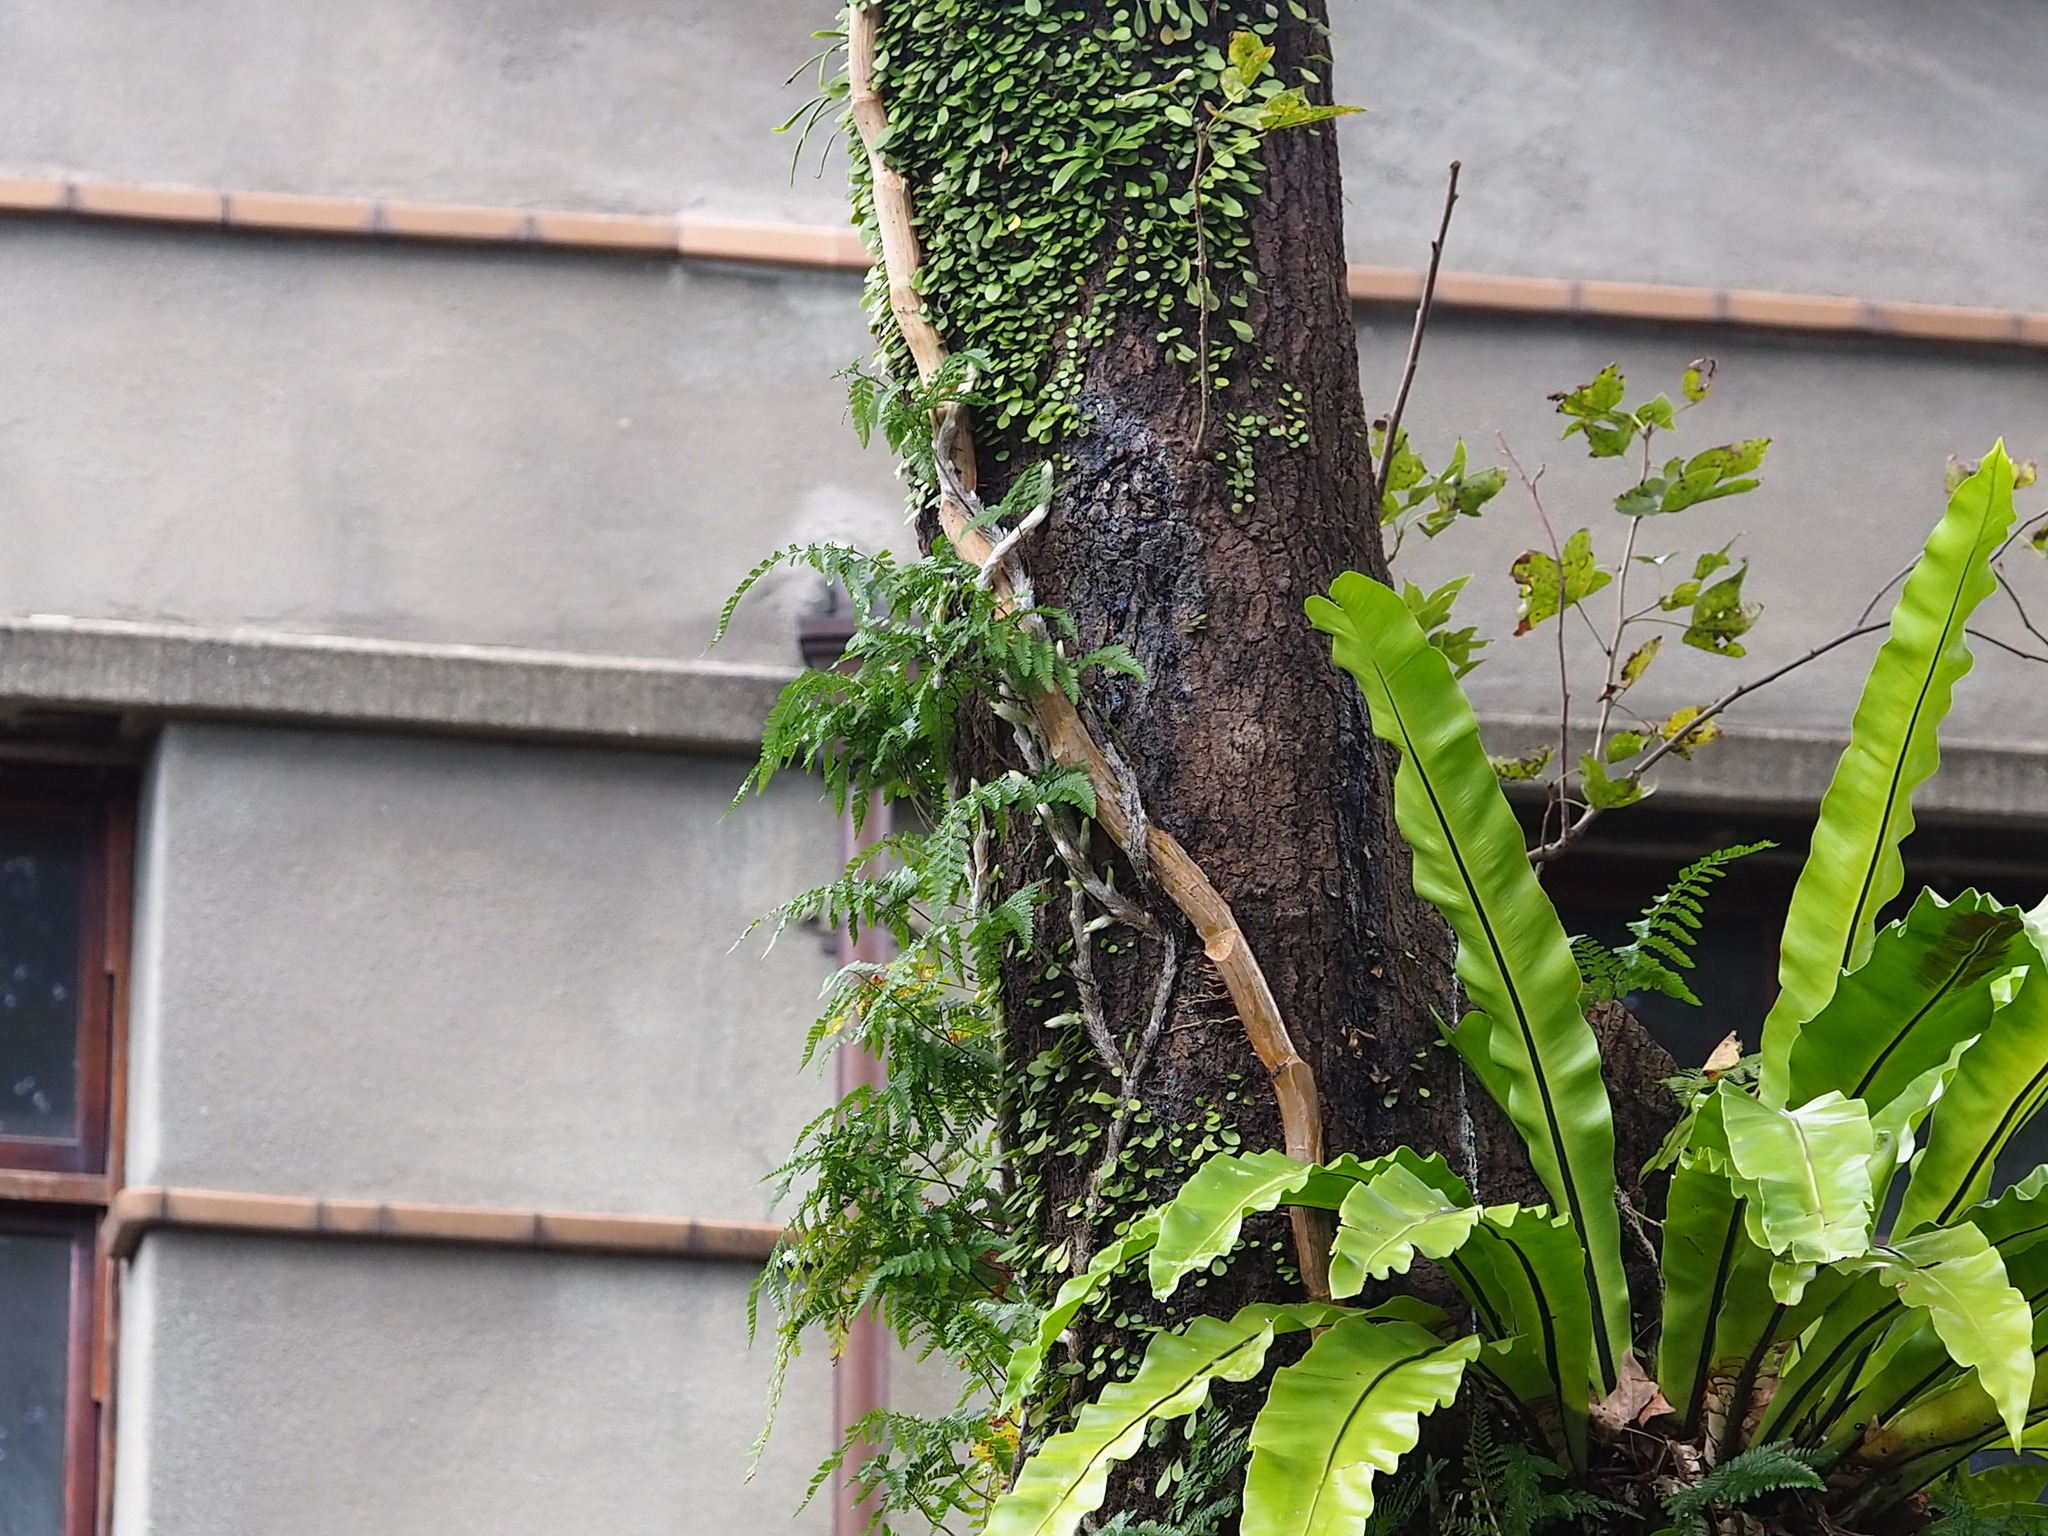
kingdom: Plantae
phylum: Tracheophyta
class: Polypodiopsida
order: Polypodiales
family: Davalliaceae
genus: Davallia
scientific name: Davallia griffithiana
